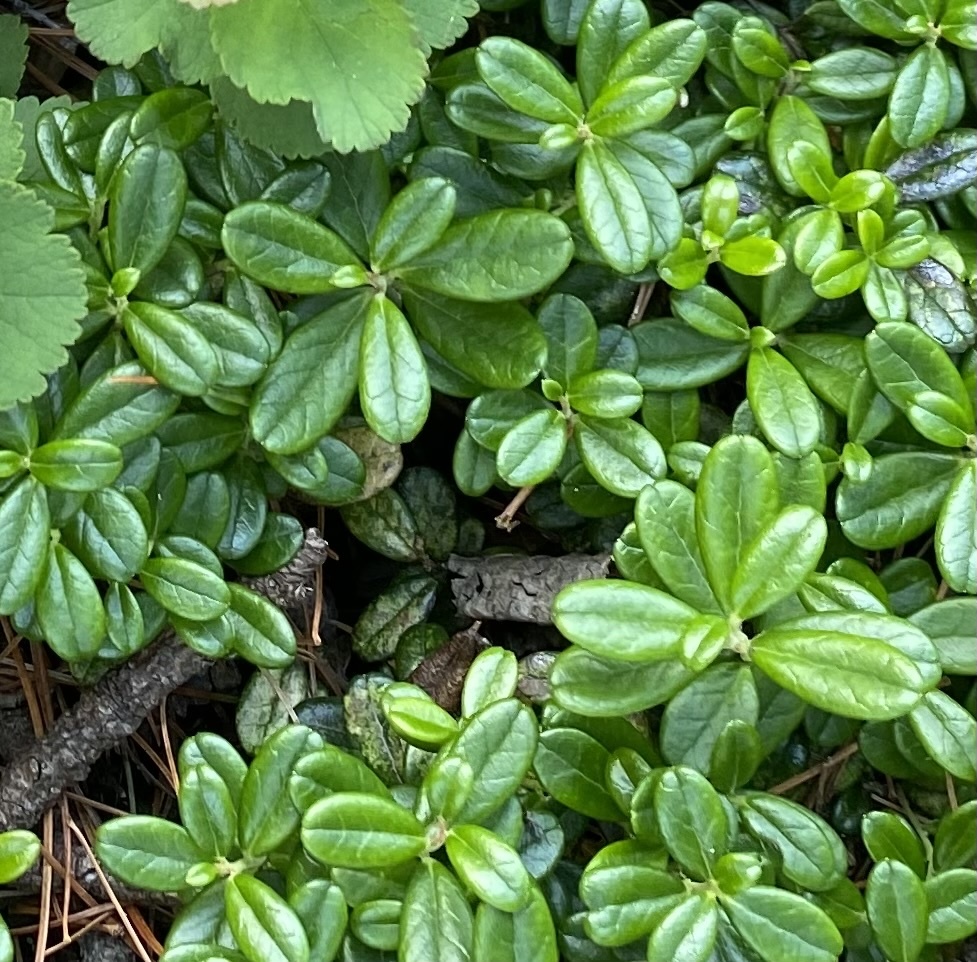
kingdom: Plantae
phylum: Tracheophyta
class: Magnoliopsida
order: Ericales
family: Ericaceae
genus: Vaccinium
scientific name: Vaccinium vitis-idaea
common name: Cowberry
